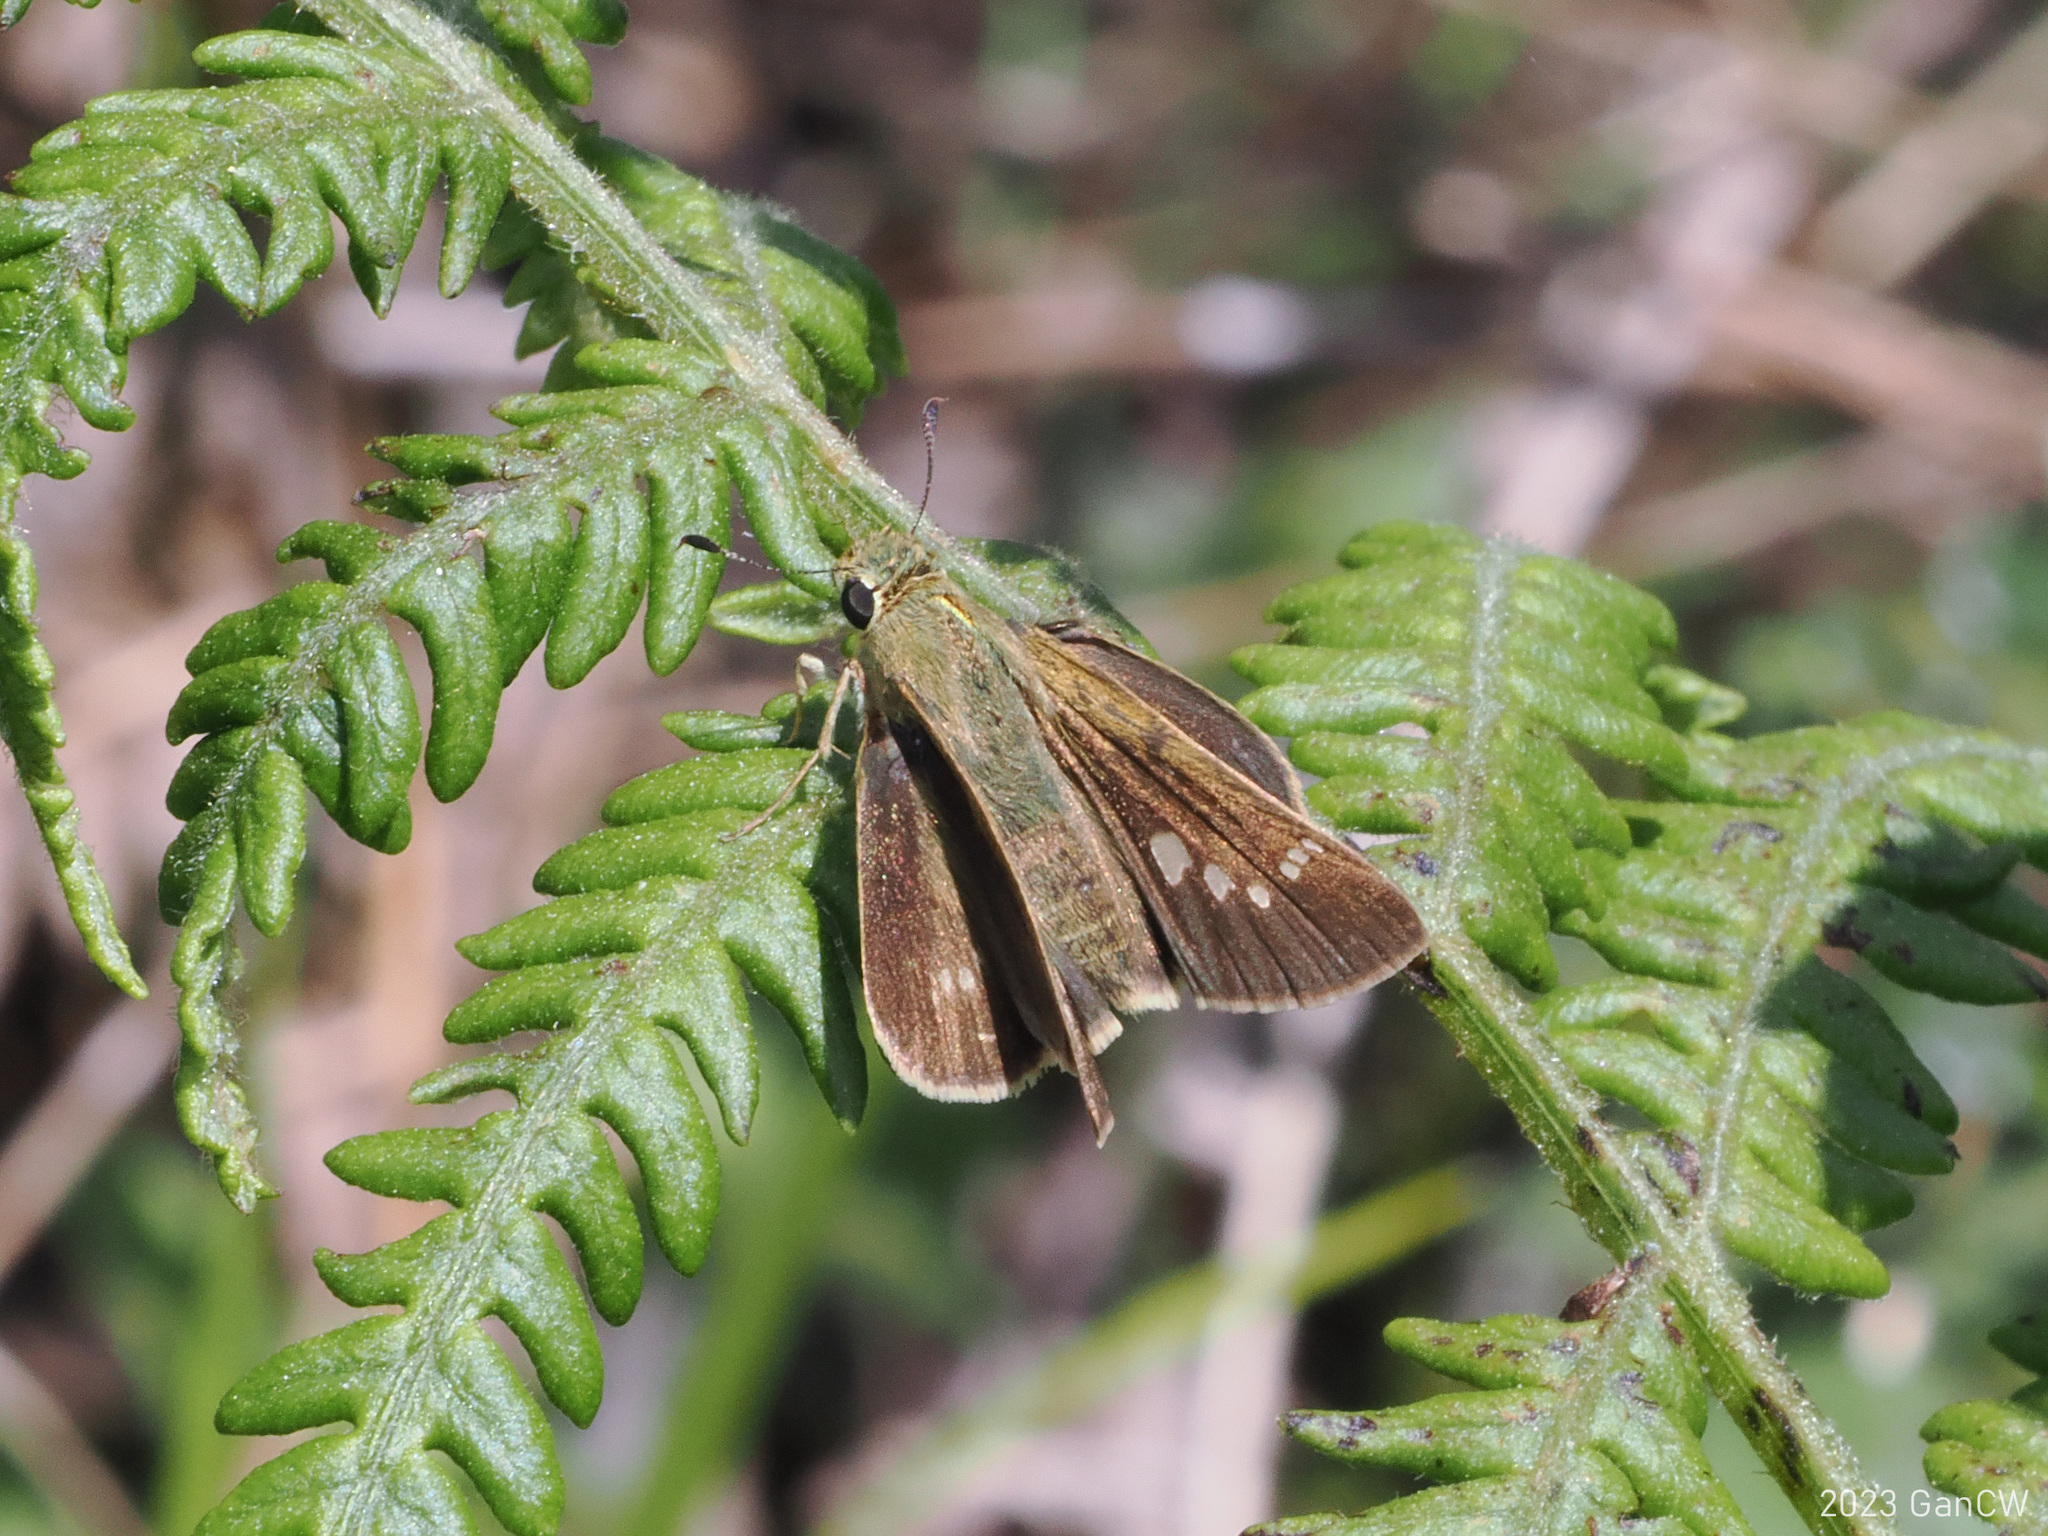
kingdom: Animalia
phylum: Arthropoda
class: Insecta
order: Lepidoptera
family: Hesperiidae
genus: Pseudoborbo
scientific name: Pseudoborbo bevani
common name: Bevan's swift
